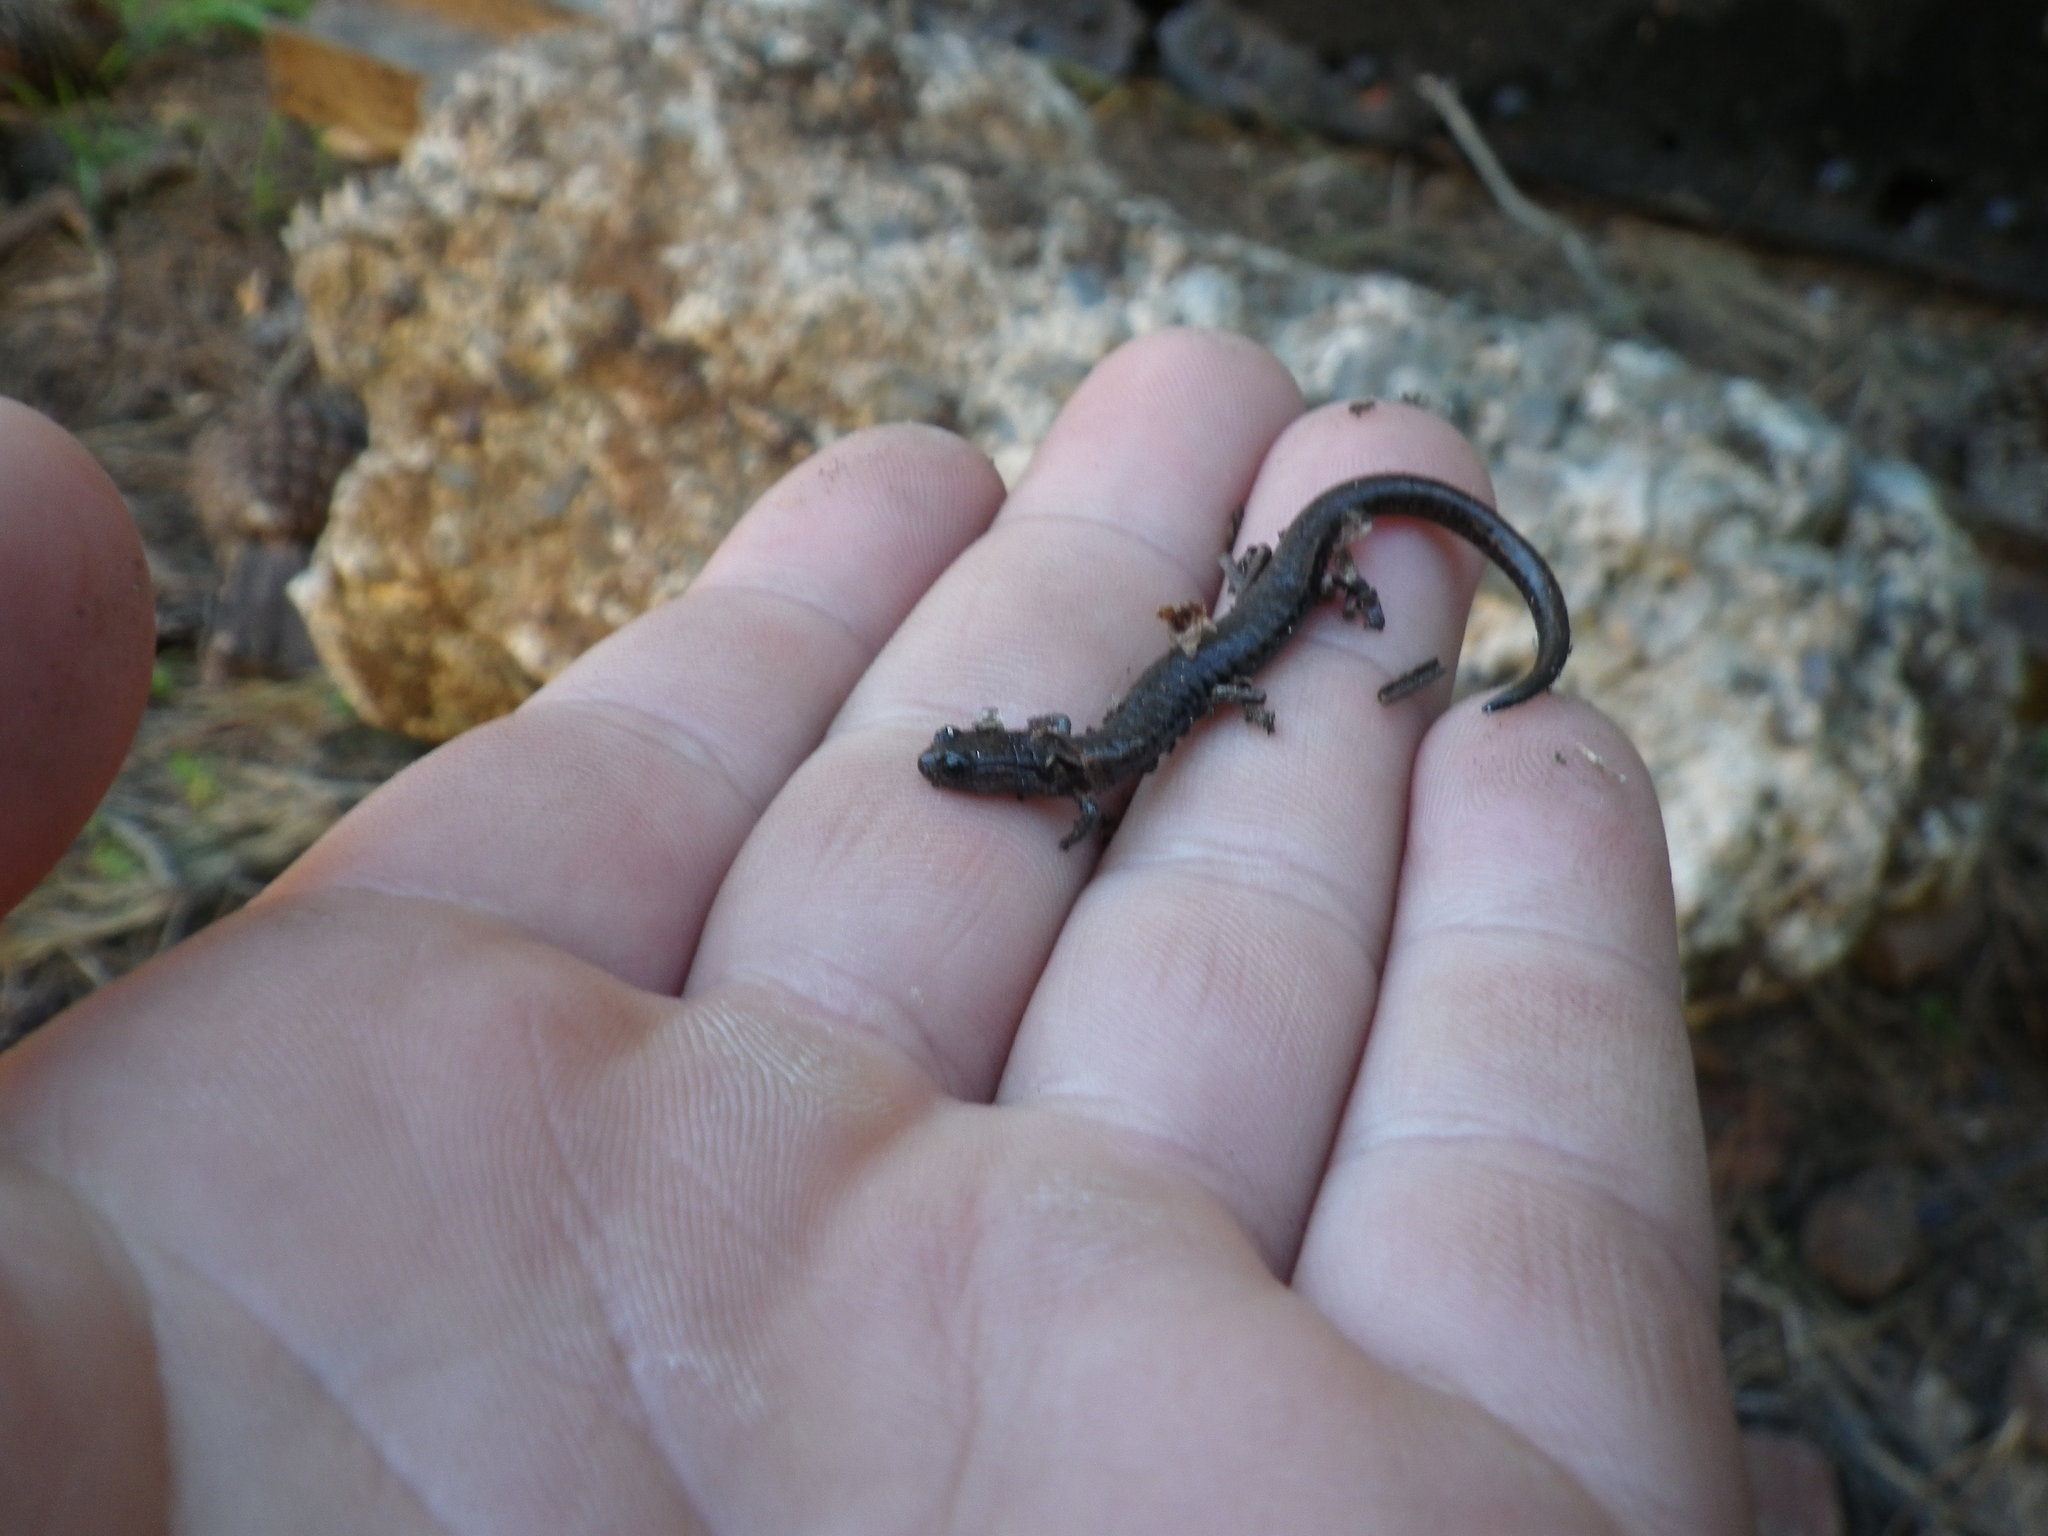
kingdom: Animalia
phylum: Chordata
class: Amphibia
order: Caudata
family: Plethodontidae
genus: Batrachoseps
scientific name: Batrachoseps attenuatus
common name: California slender salamander
